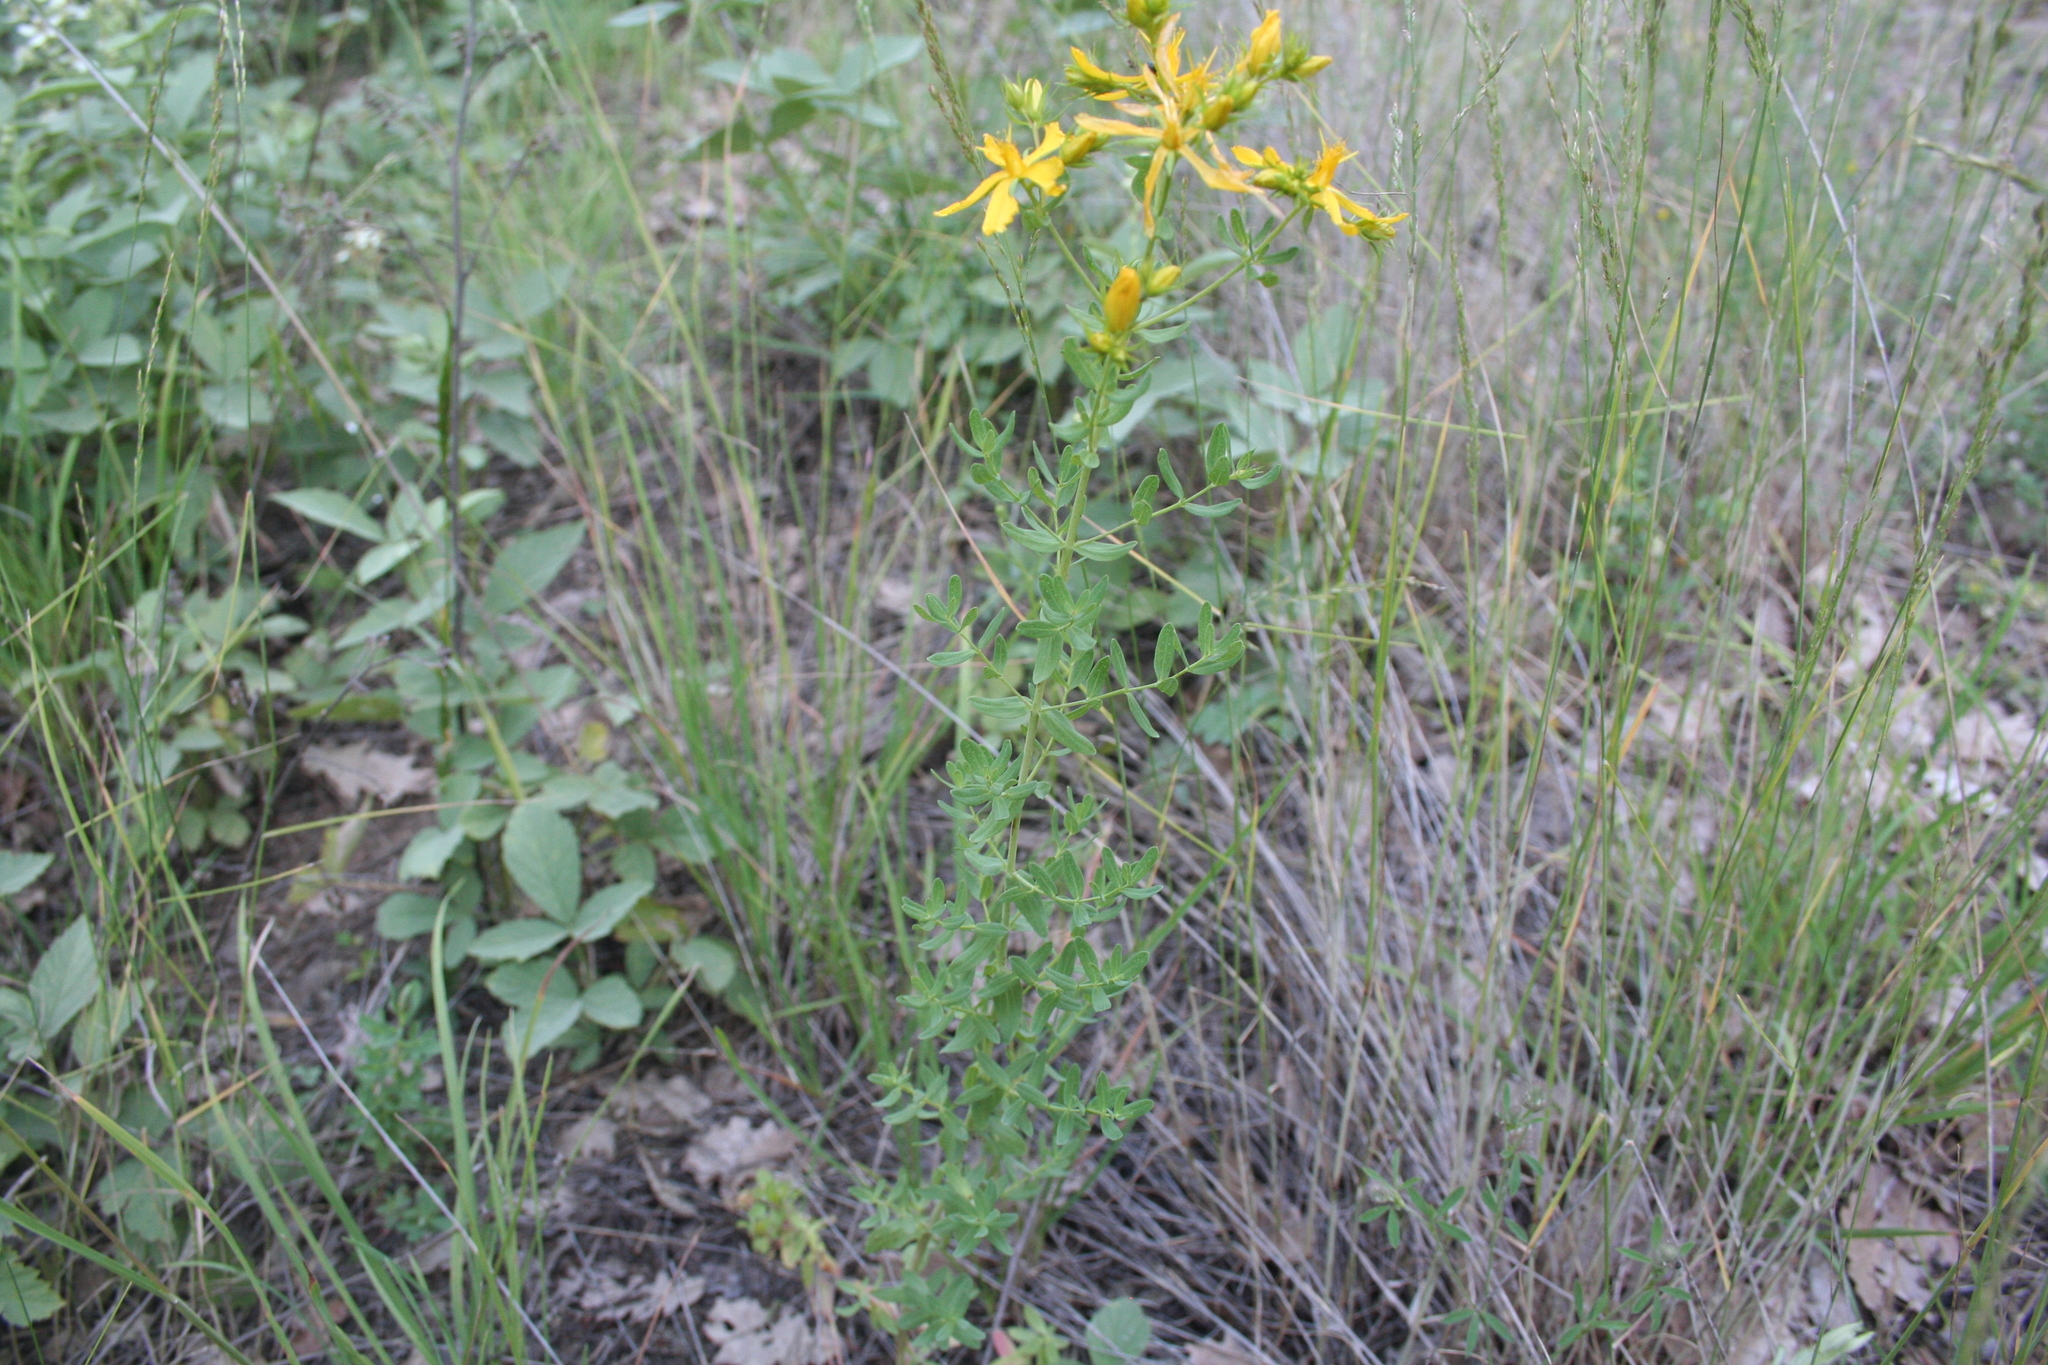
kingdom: Plantae
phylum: Tracheophyta
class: Magnoliopsida
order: Malpighiales
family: Hypericaceae
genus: Hypericum
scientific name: Hypericum perforatum
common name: Common st. johnswort
